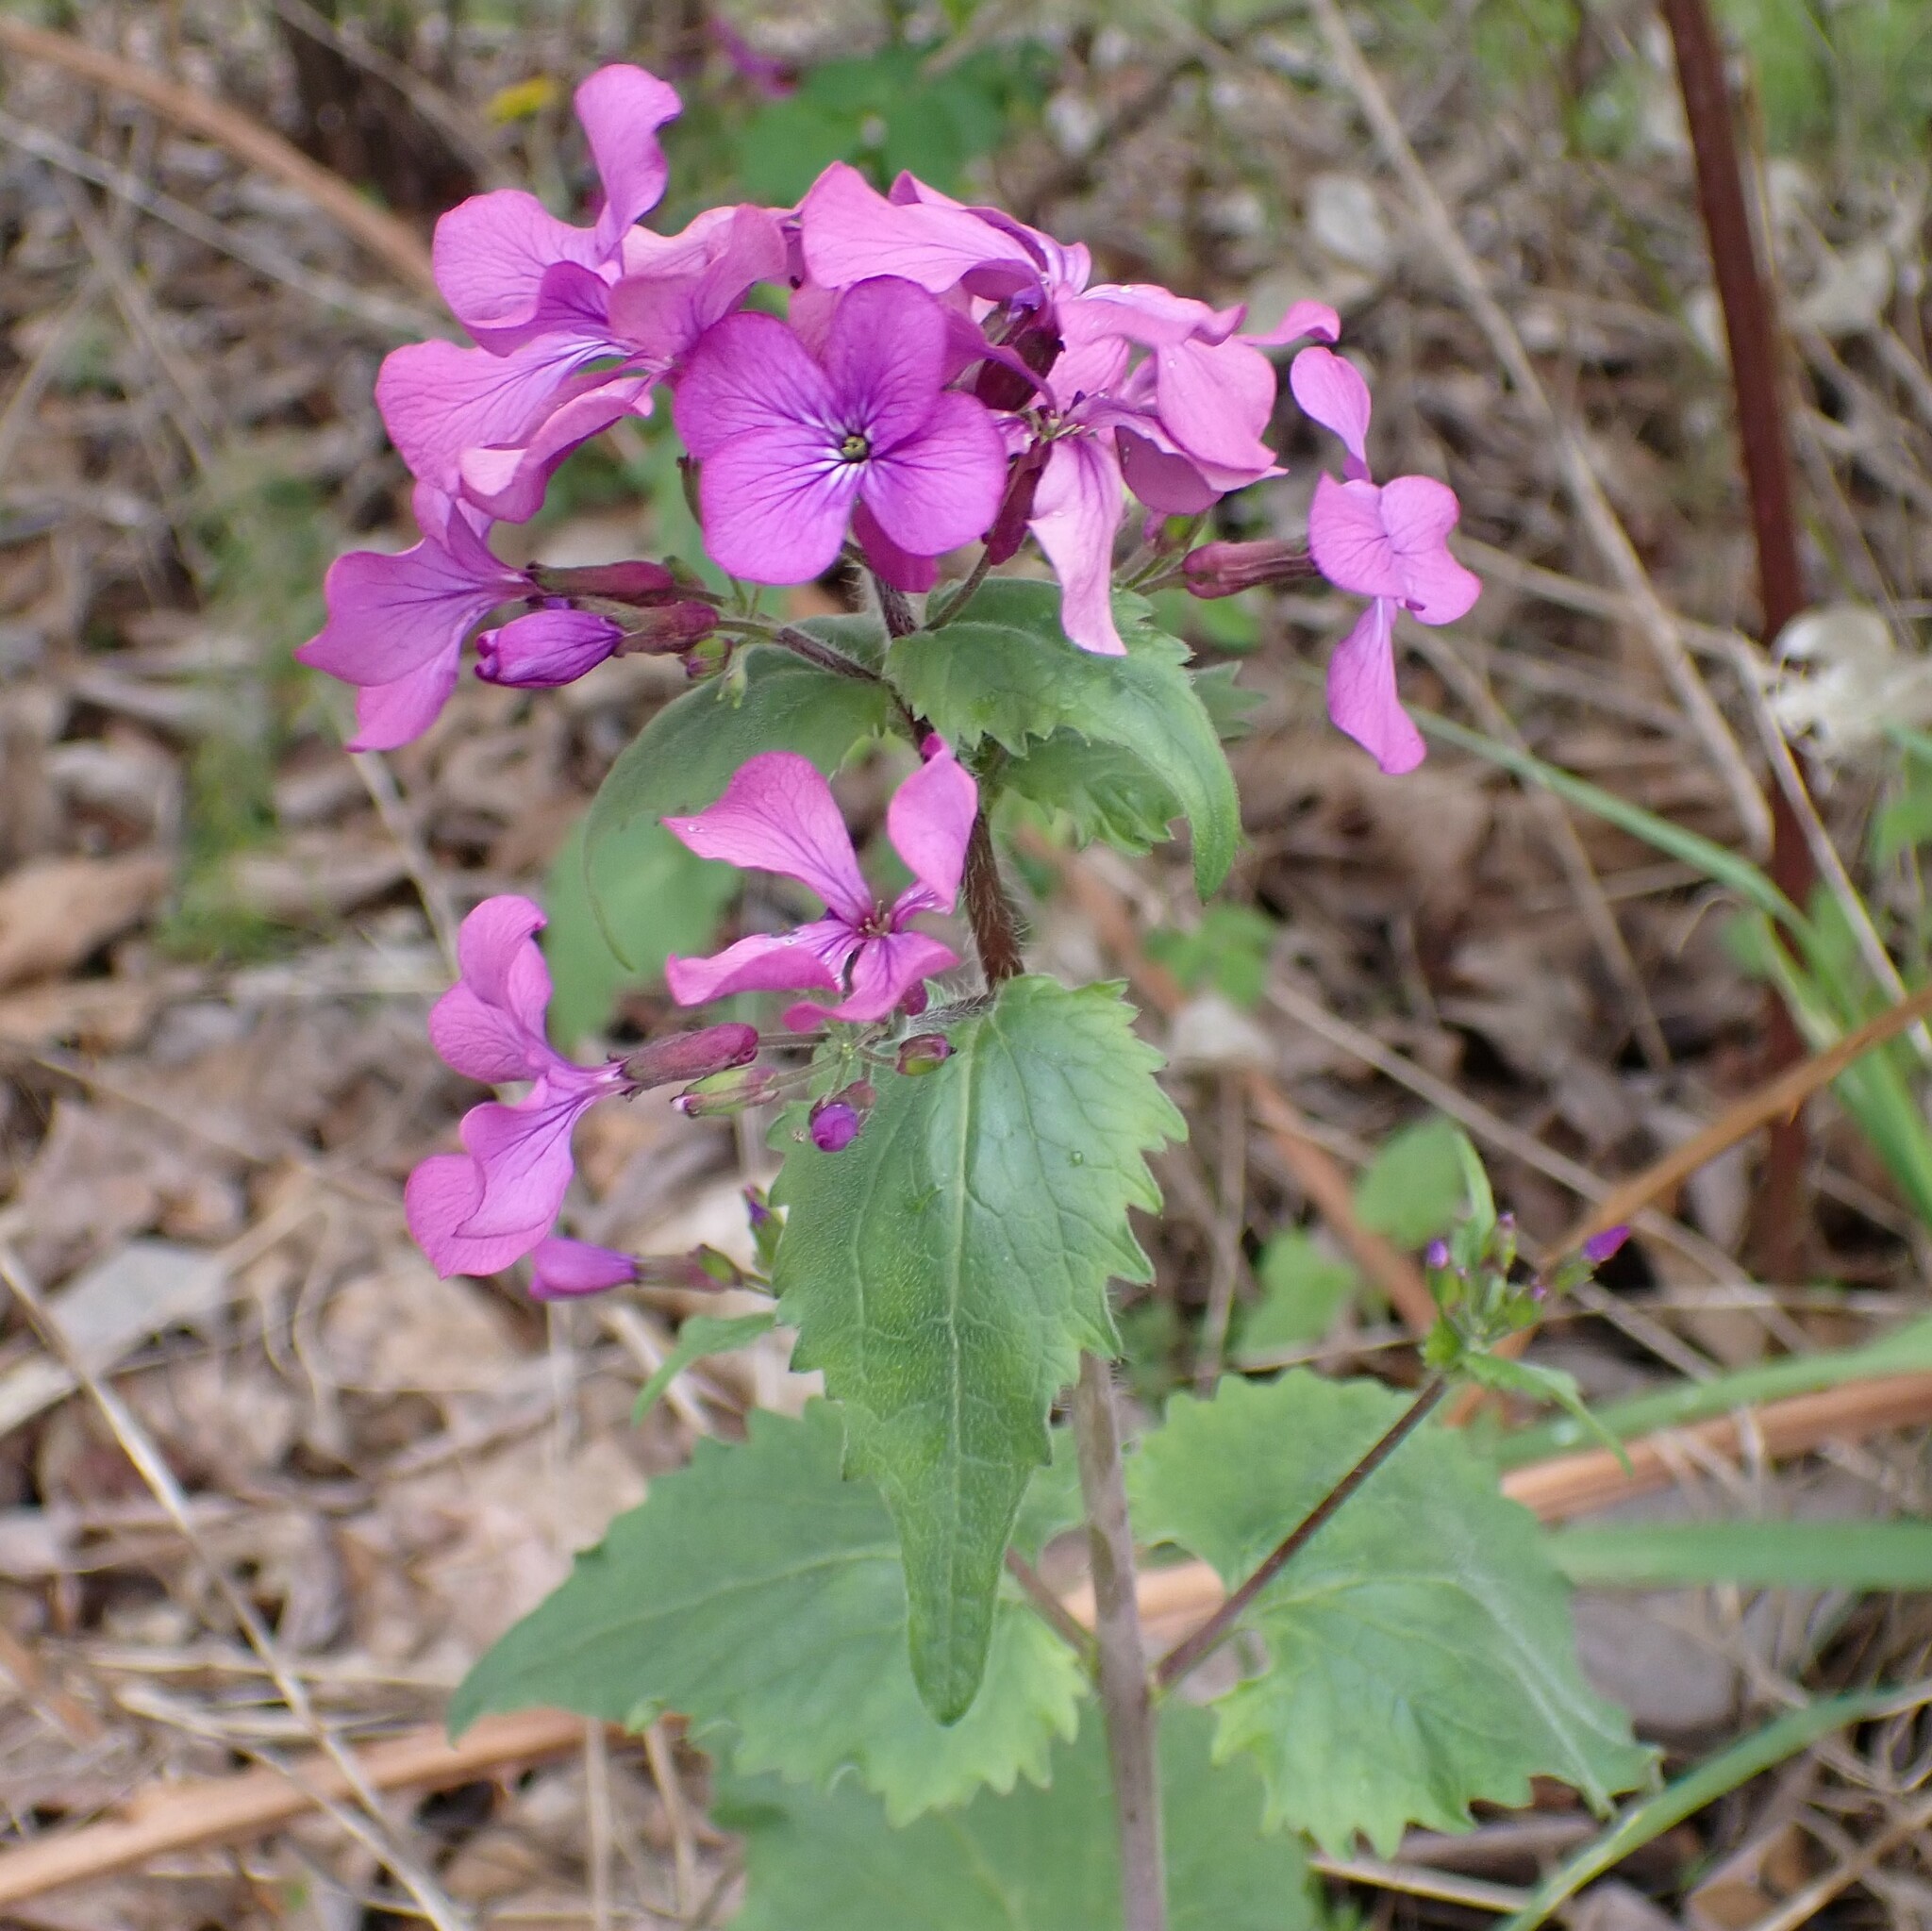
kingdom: Plantae
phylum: Tracheophyta
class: Magnoliopsida
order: Brassicales
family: Brassicaceae
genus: Lunaria
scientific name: Lunaria annua
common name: Honesty
